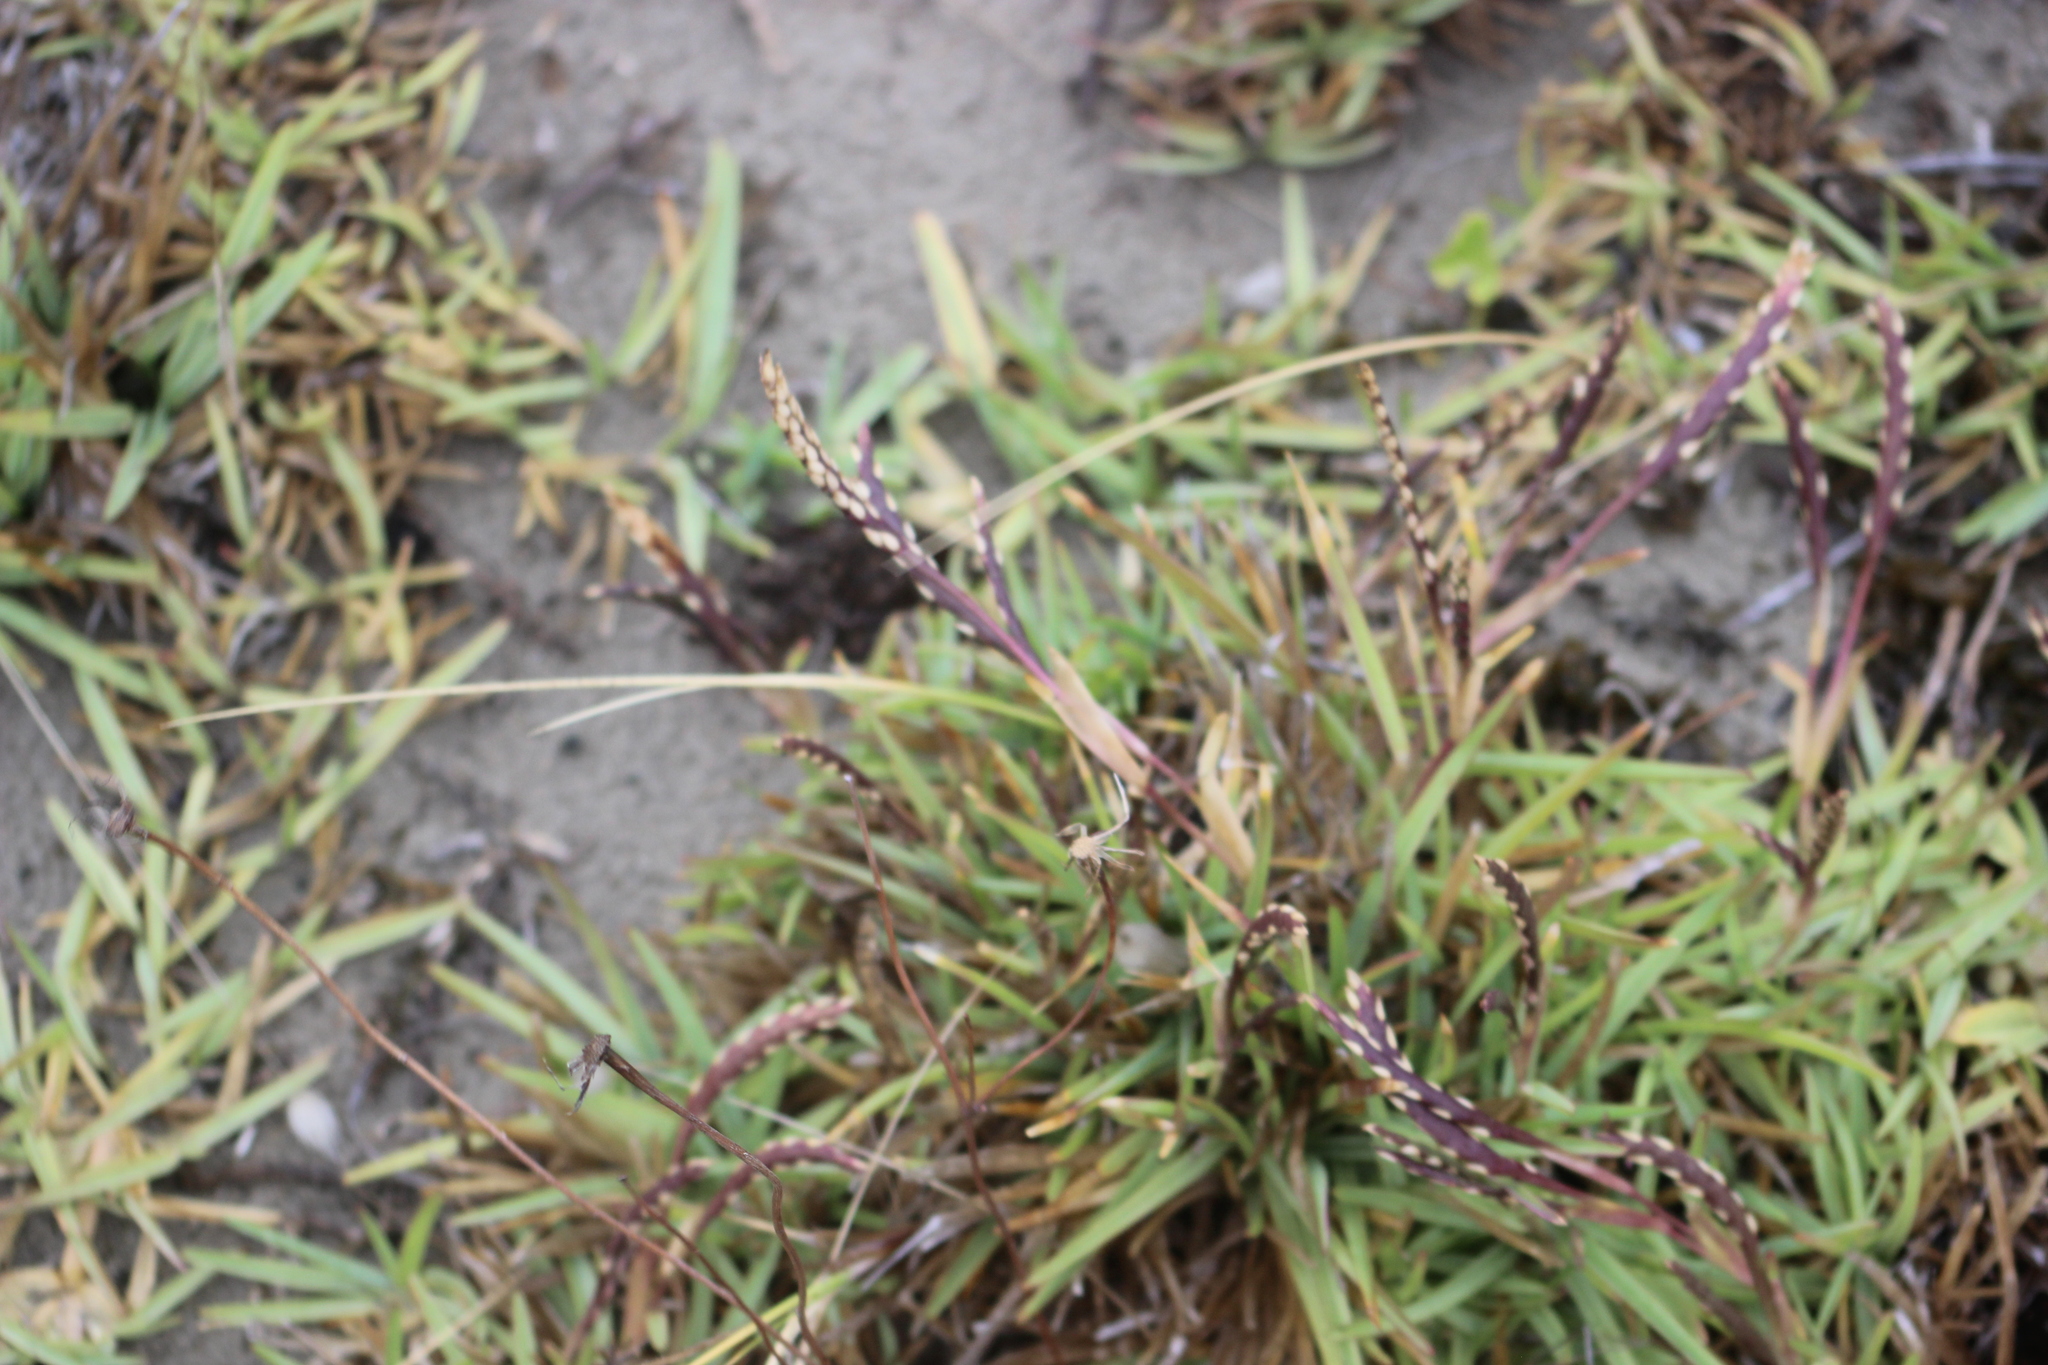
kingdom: Plantae
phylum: Tracheophyta
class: Liliopsida
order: Poales
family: Poaceae
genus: Stenotaphrum
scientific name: Stenotaphrum secundatum
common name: St. augustine grass
